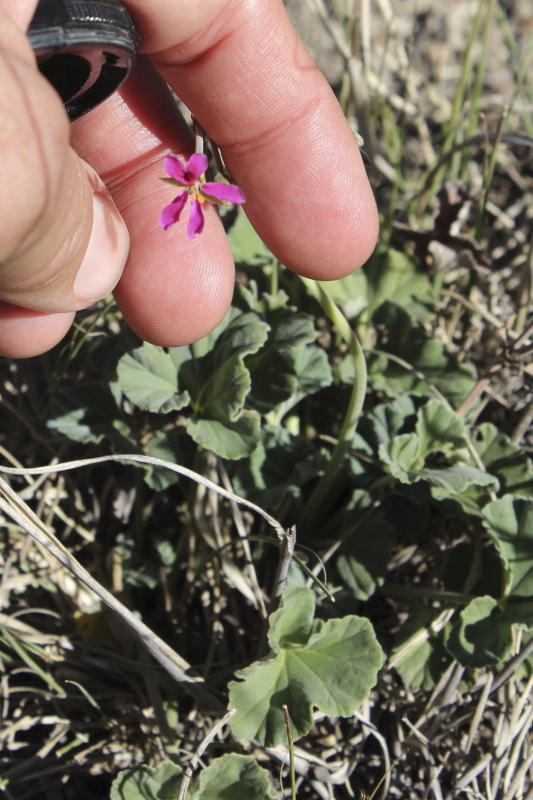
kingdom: Plantae
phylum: Tracheophyta
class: Magnoliopsida
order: Geraniales
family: Geraniaceae
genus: Pelargonium
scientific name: Pelargonium reniforme
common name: Kidney-leaf pelargonium
